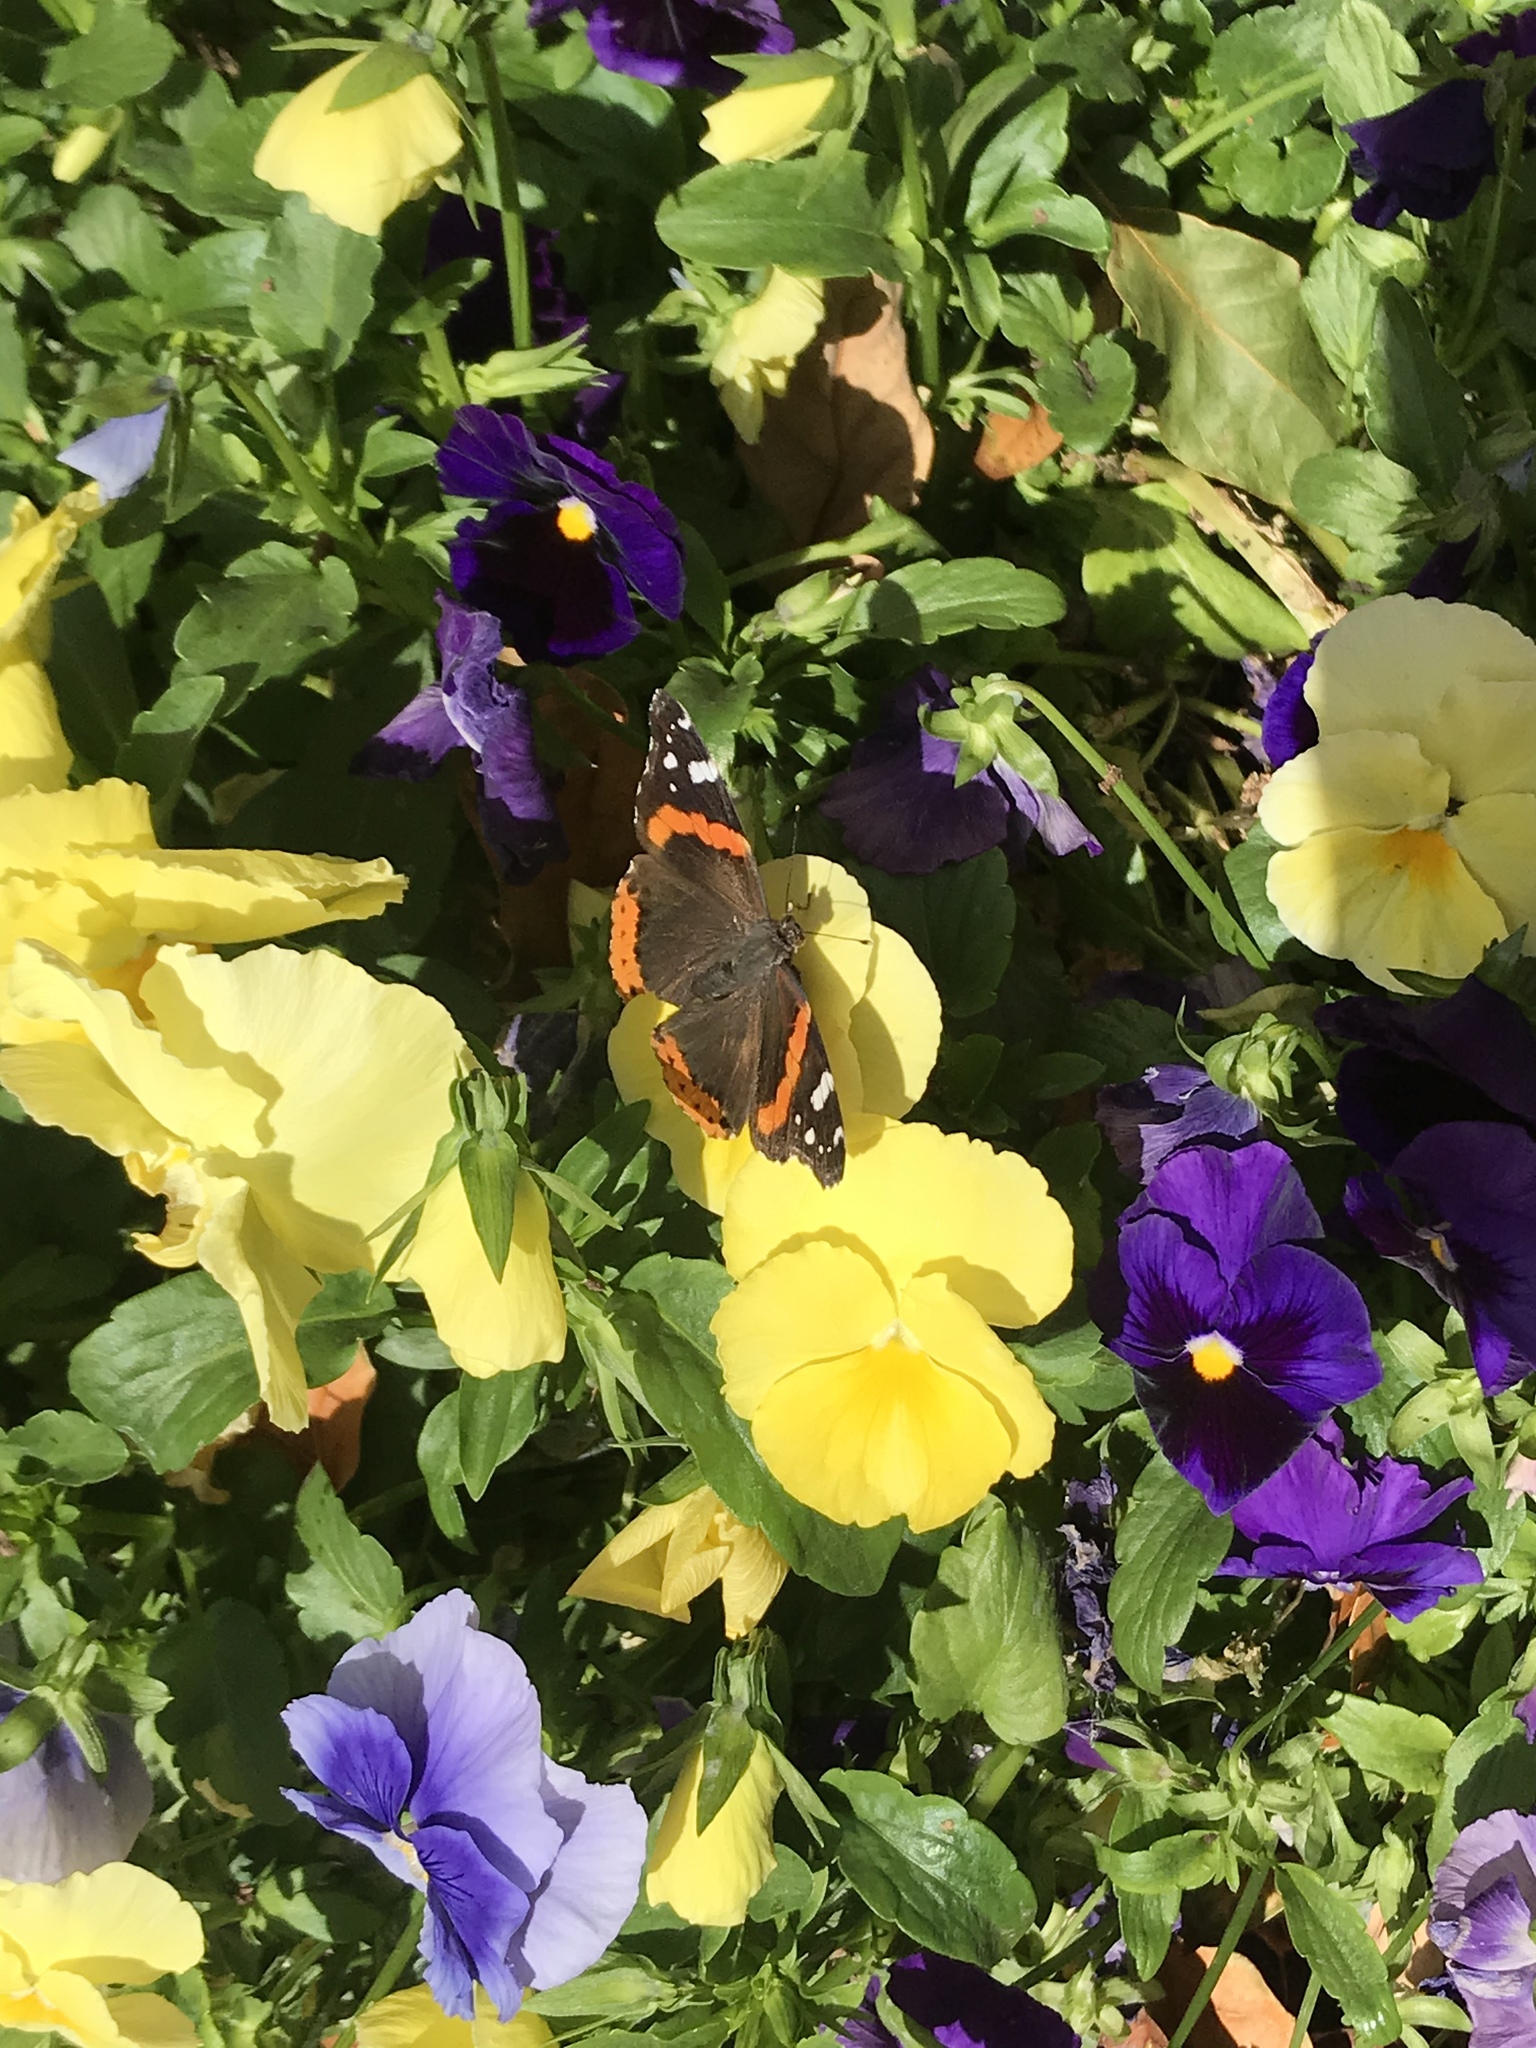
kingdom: Animalia
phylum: Arthropoda
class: Insecta
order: Lepidoptera
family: Nymphalidae
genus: Vanessa
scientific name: Vanessa atalanta
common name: Red admiral
